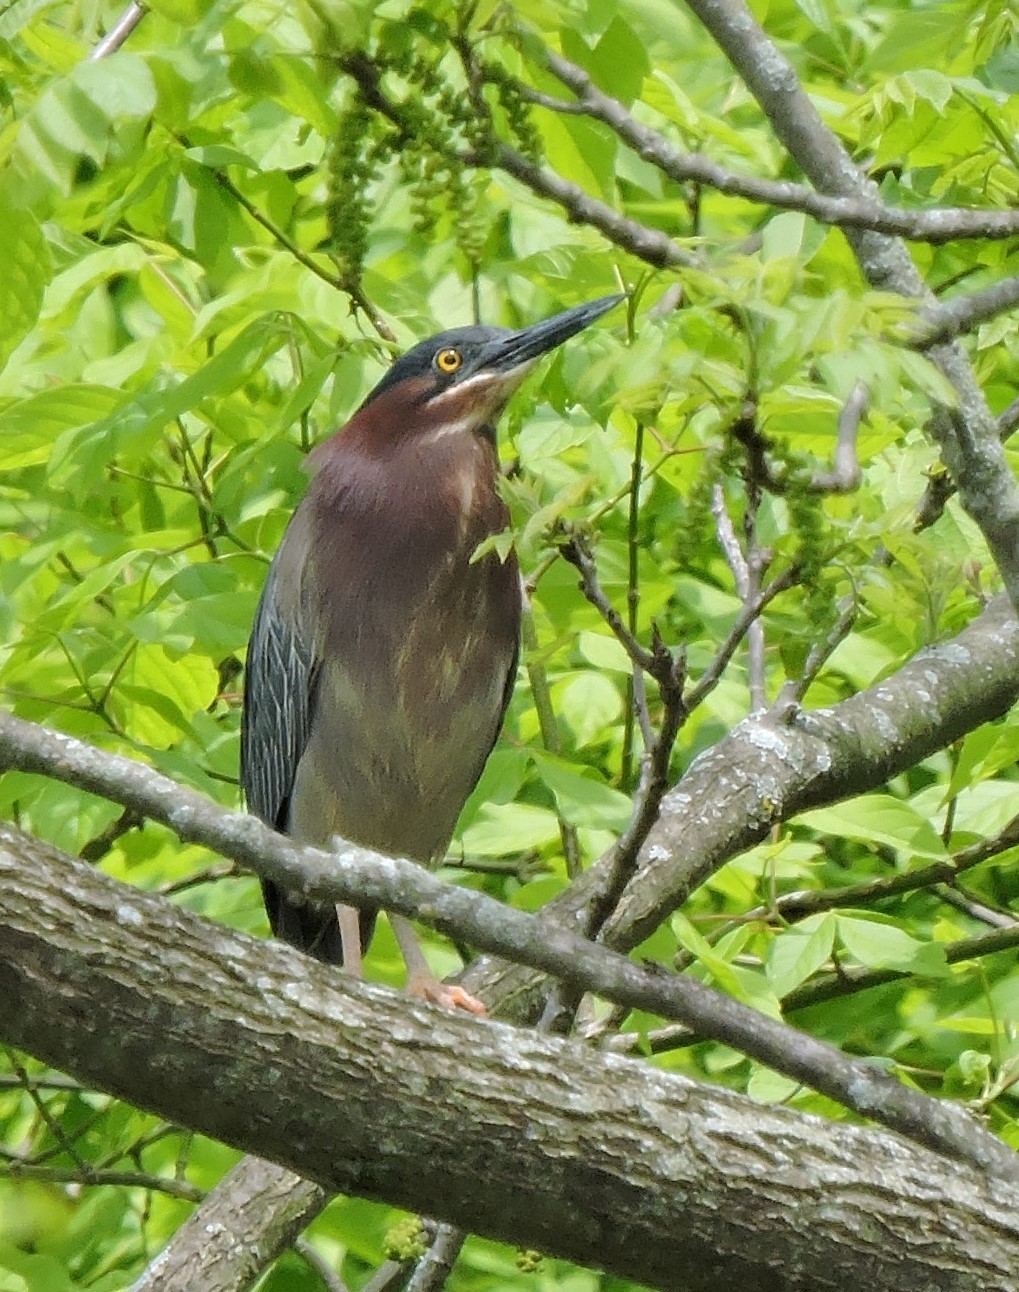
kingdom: Animalia
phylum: Chordata
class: Aves
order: Pelecaniformes
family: Ardeidae
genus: Butorides
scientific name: Butorides virescens
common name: Green heron
